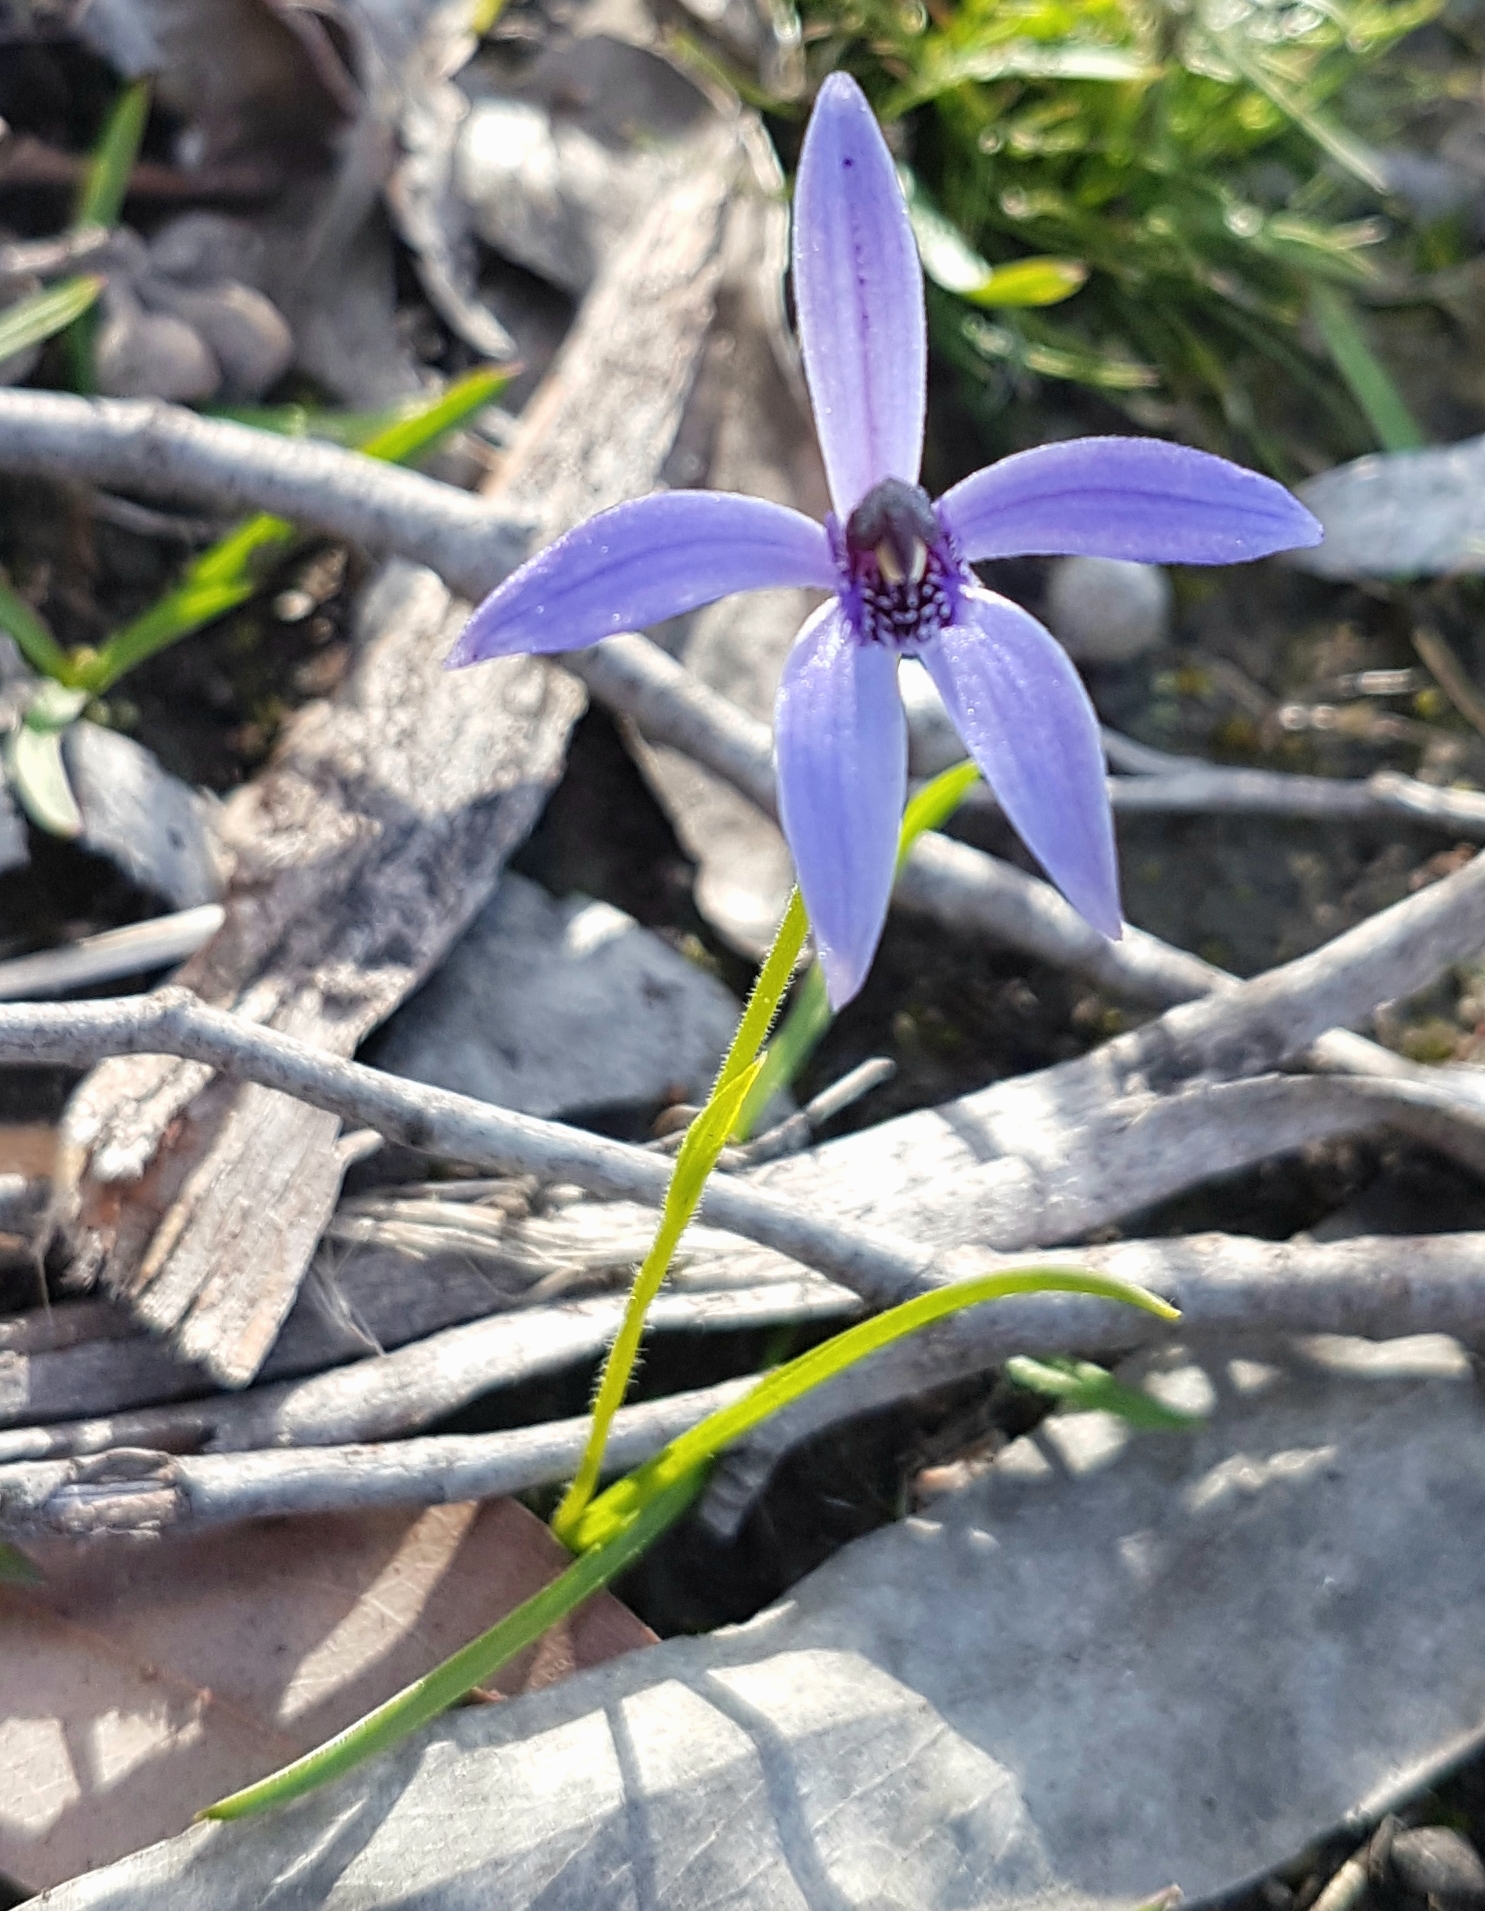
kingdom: Plantae
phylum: Tracheophyta
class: Liliopsida
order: Asparagales
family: Orchidaceae
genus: Pheladenia
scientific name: Pheladenia deformis
